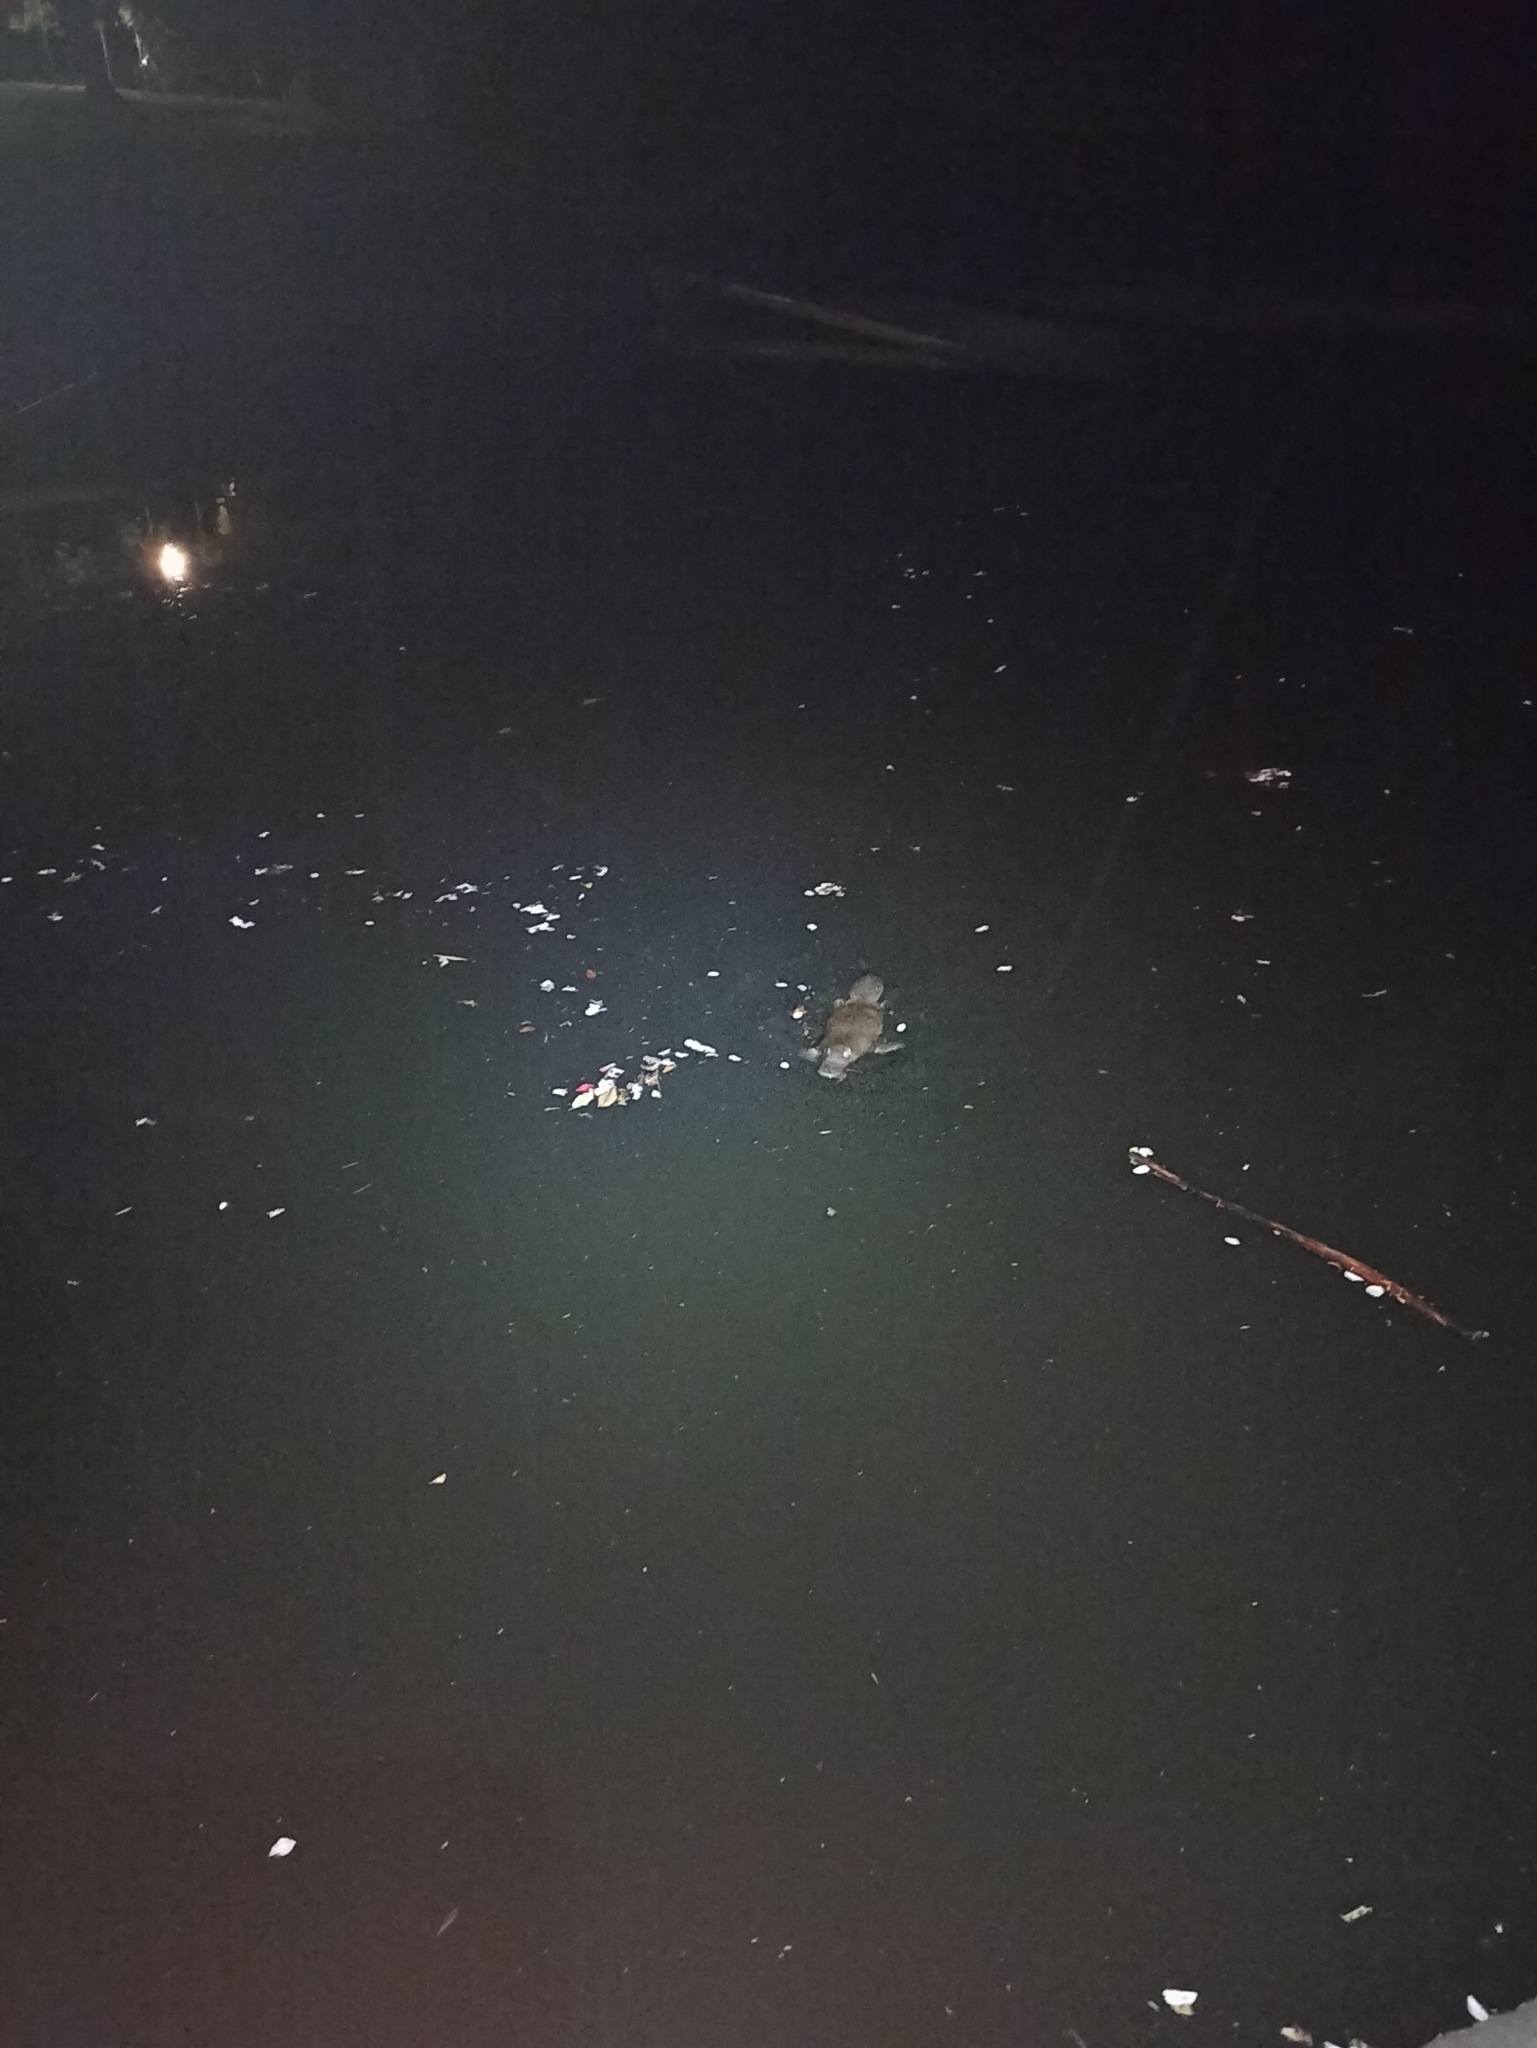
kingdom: Animalia
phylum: Chordata
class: Mammalia
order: Monotremata
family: Ornithorhynchidae
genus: Ornithorhynchus
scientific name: Ornithorhynchus anatinus
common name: Platypus
